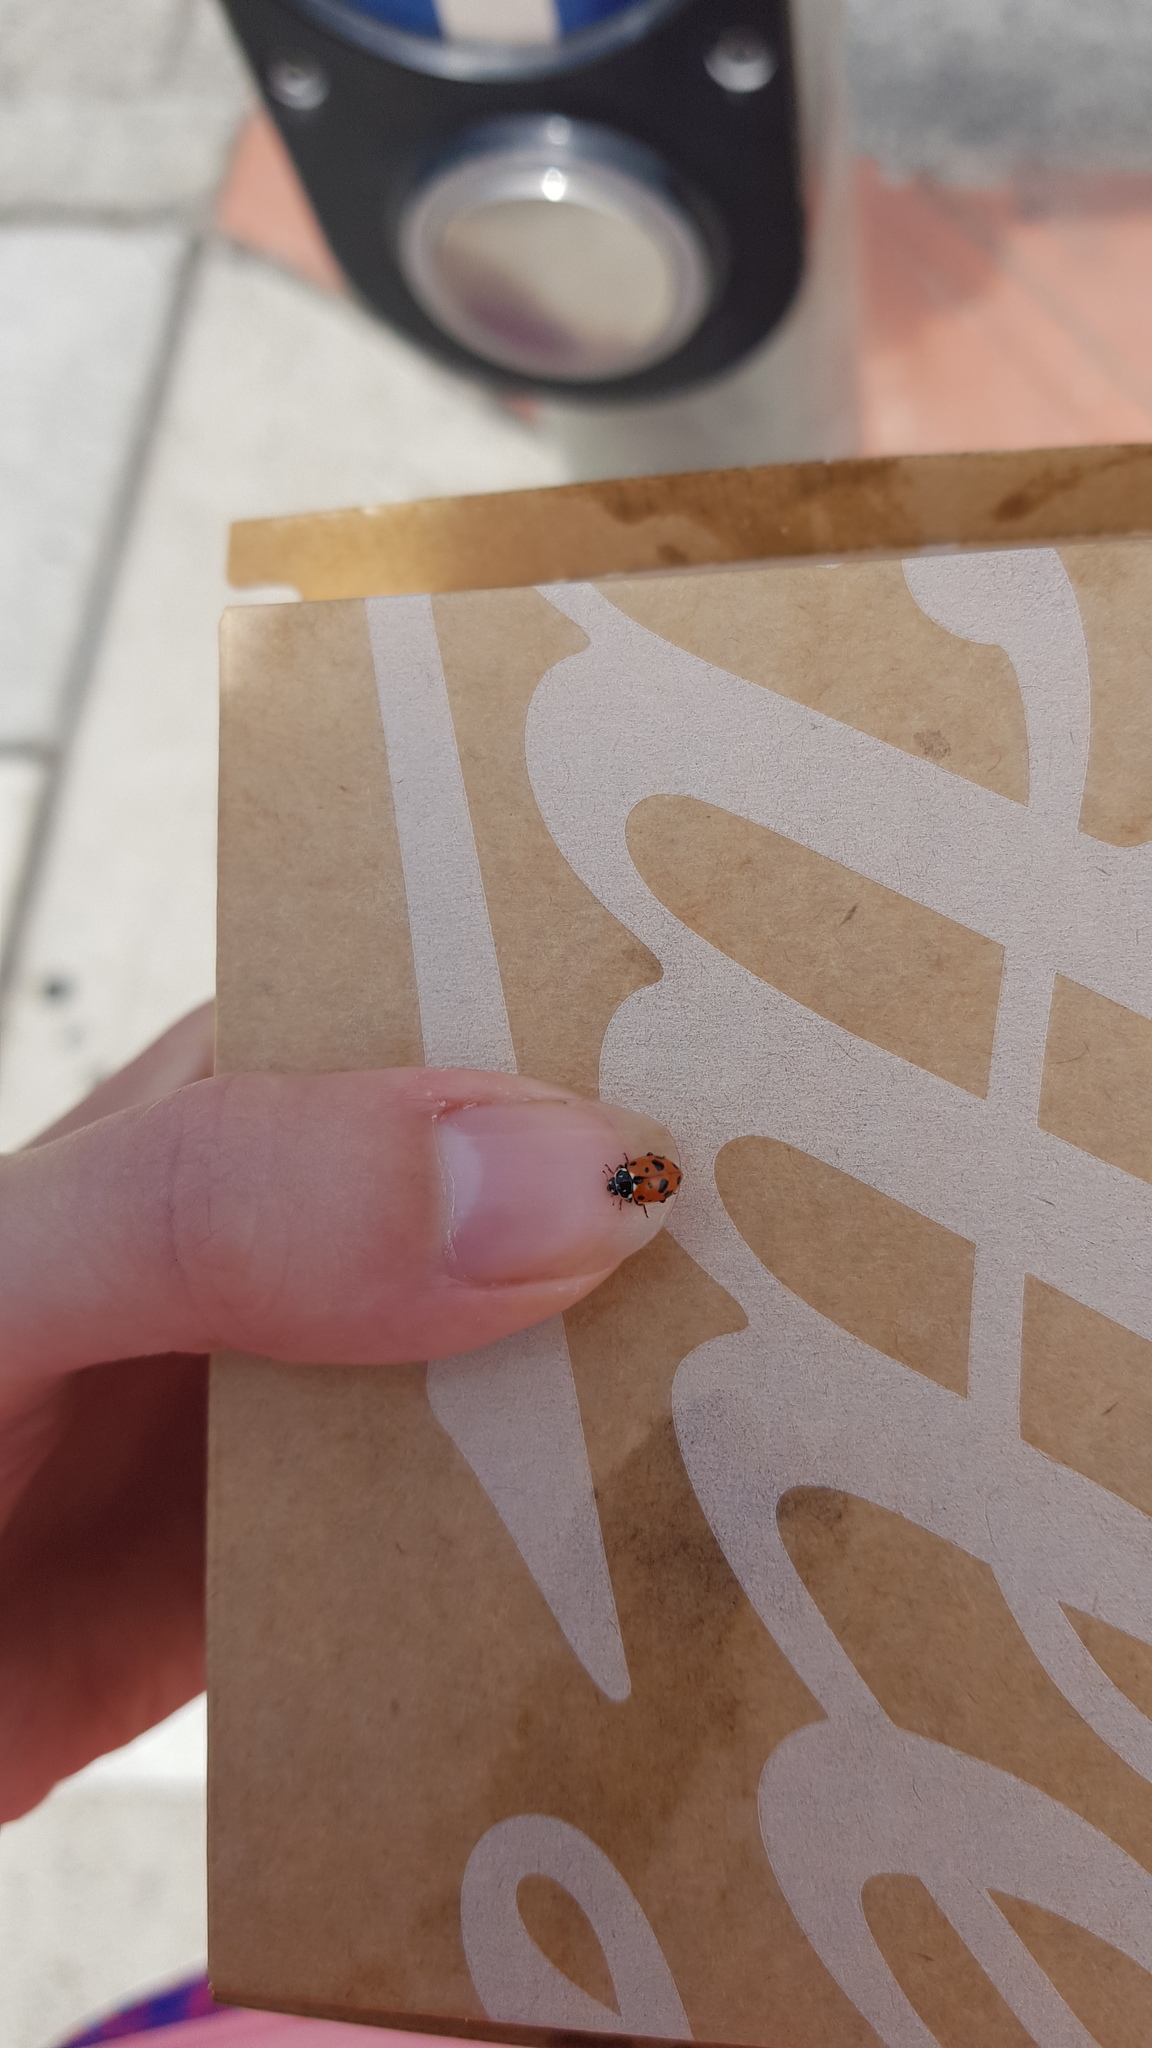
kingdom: Animalia
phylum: Arthropoda
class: Insecta
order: Coleoptera
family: Coccinellidae
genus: Hippodamia
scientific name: Hippodamia variegata
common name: Ladybird beetle
